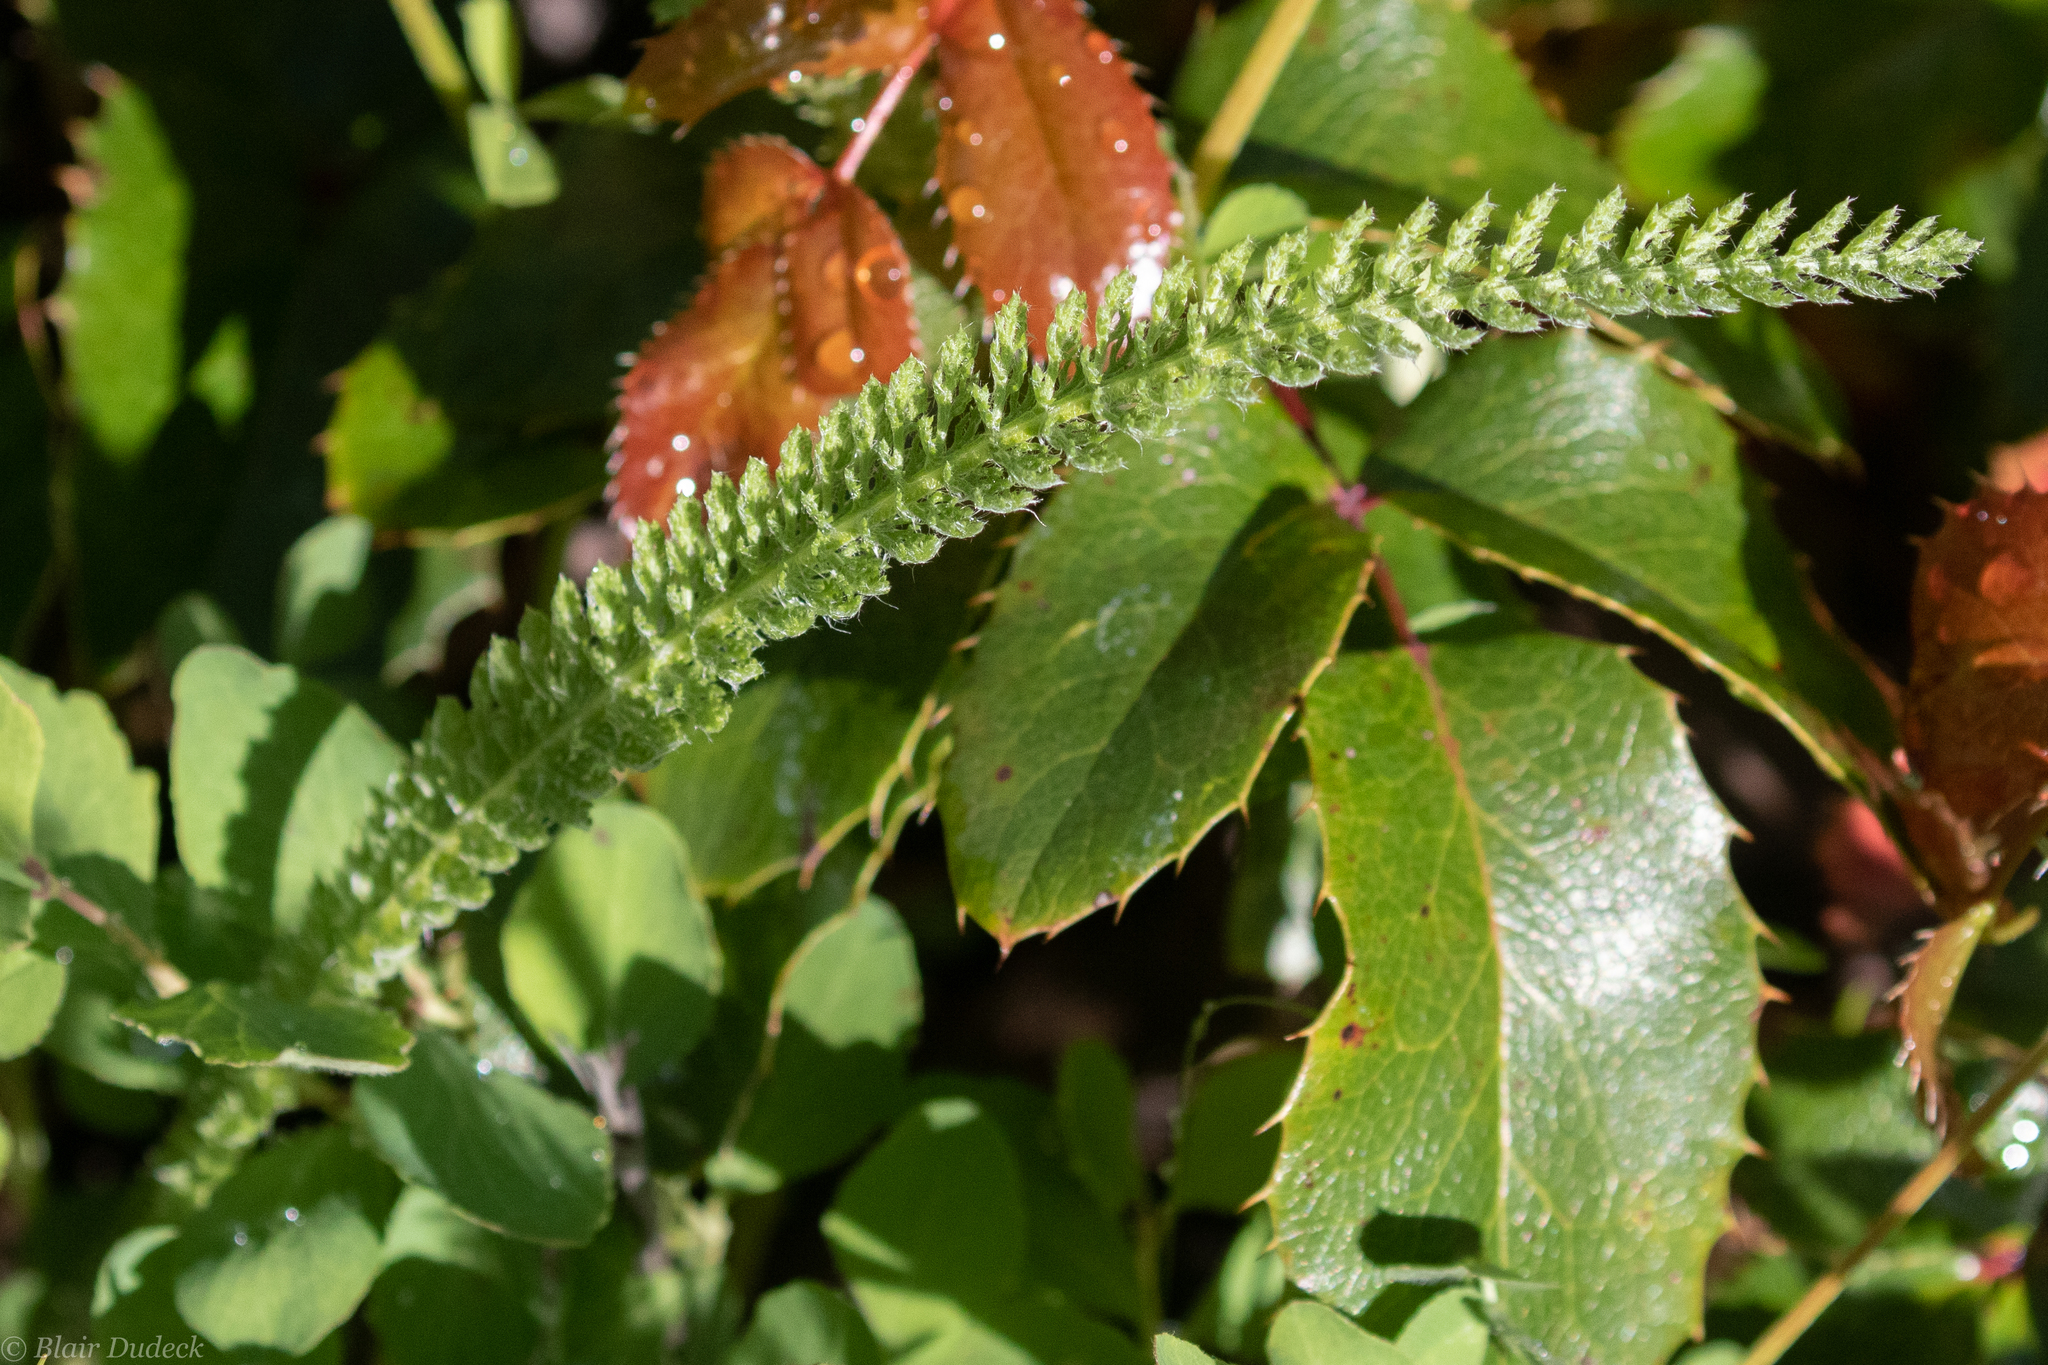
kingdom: Plantae
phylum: Tracheophyta
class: Magnoliopsida
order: Asterales
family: Asteraceae
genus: Achillea
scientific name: Achillea millefolium
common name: Yarrow
